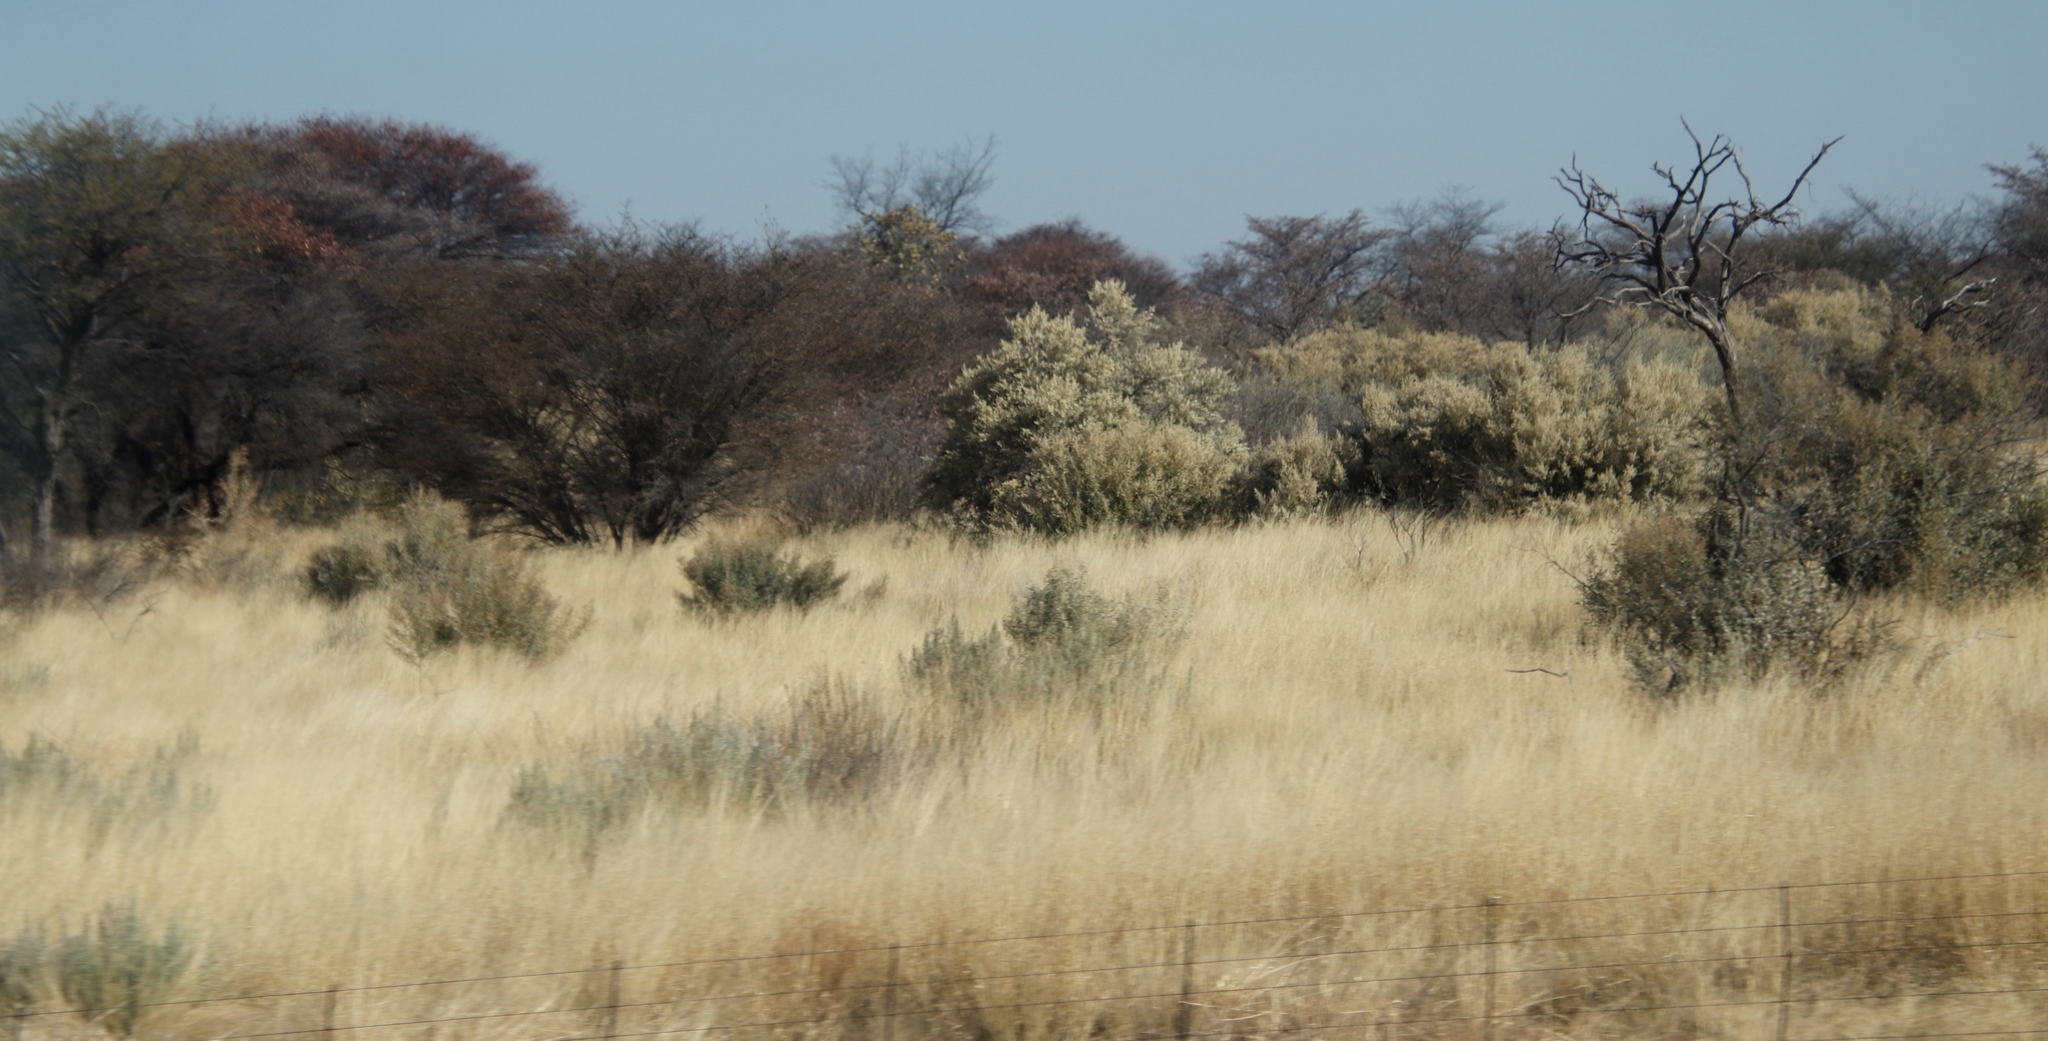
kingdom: Plantae
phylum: Tracheophyta
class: Magnoliopsida
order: Asterales
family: Asteraceae
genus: Tarchonanthus
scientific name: Tarchonanthus camphoratus
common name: Camphorwood
